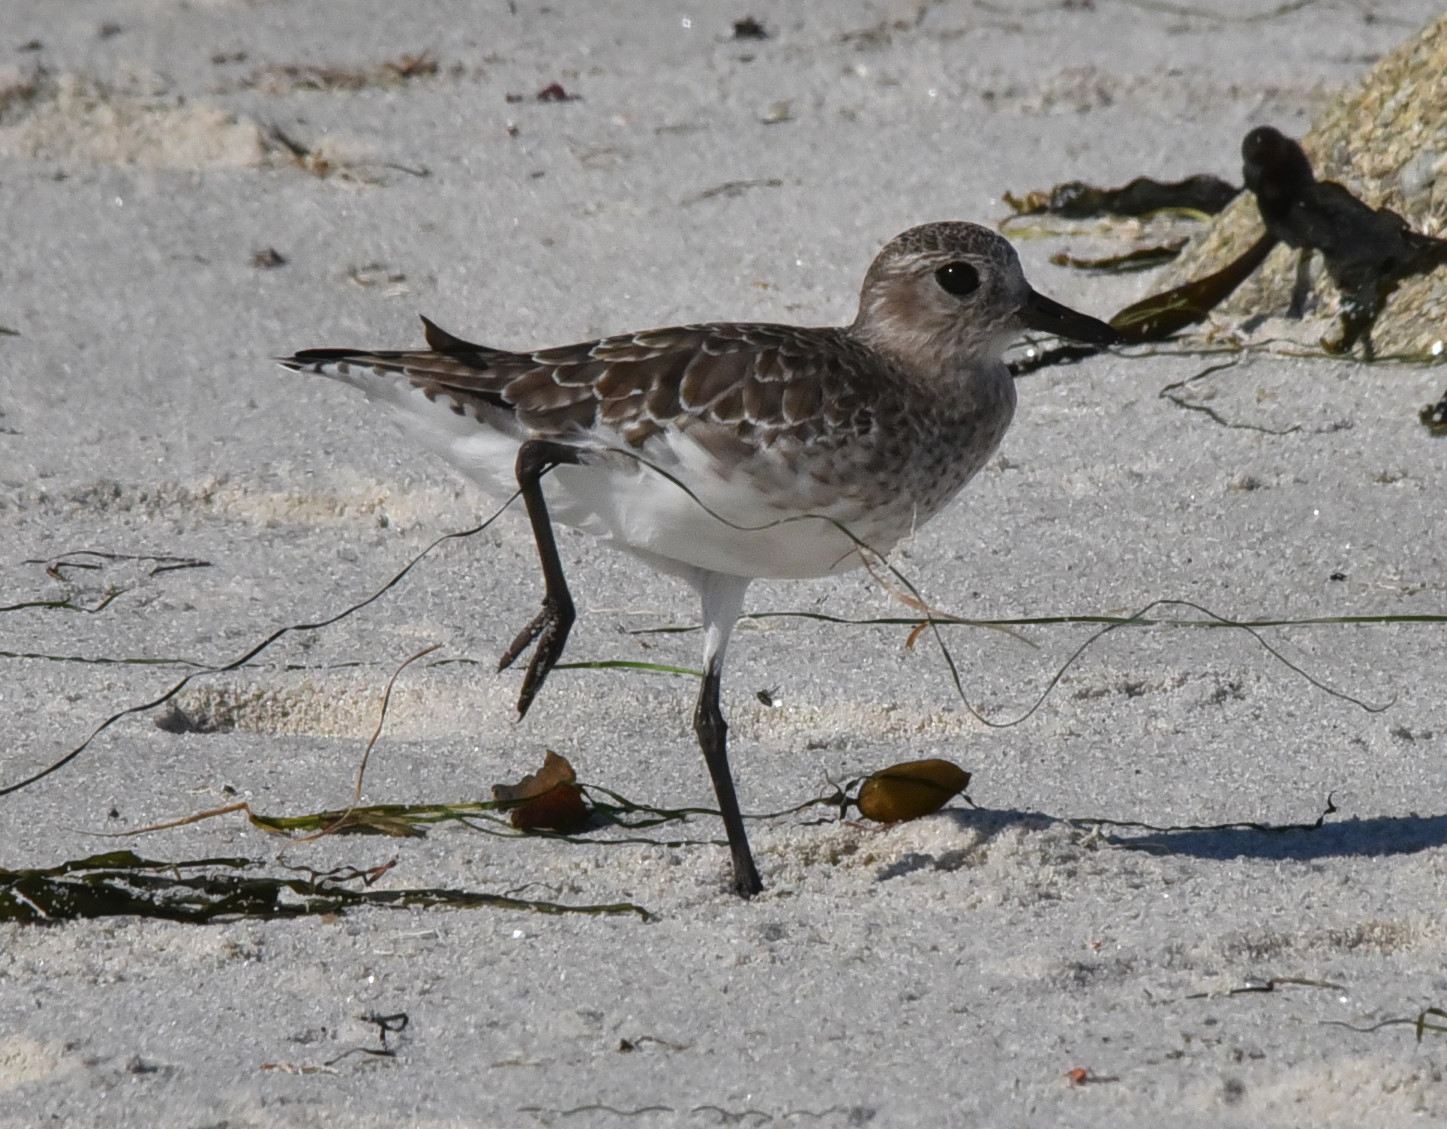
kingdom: Animalia
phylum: Chordata
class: Aves
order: Charadriiformes
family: Charadriidae
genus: Pluvialis
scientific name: Pluvialis squatarola
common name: Grey plover
